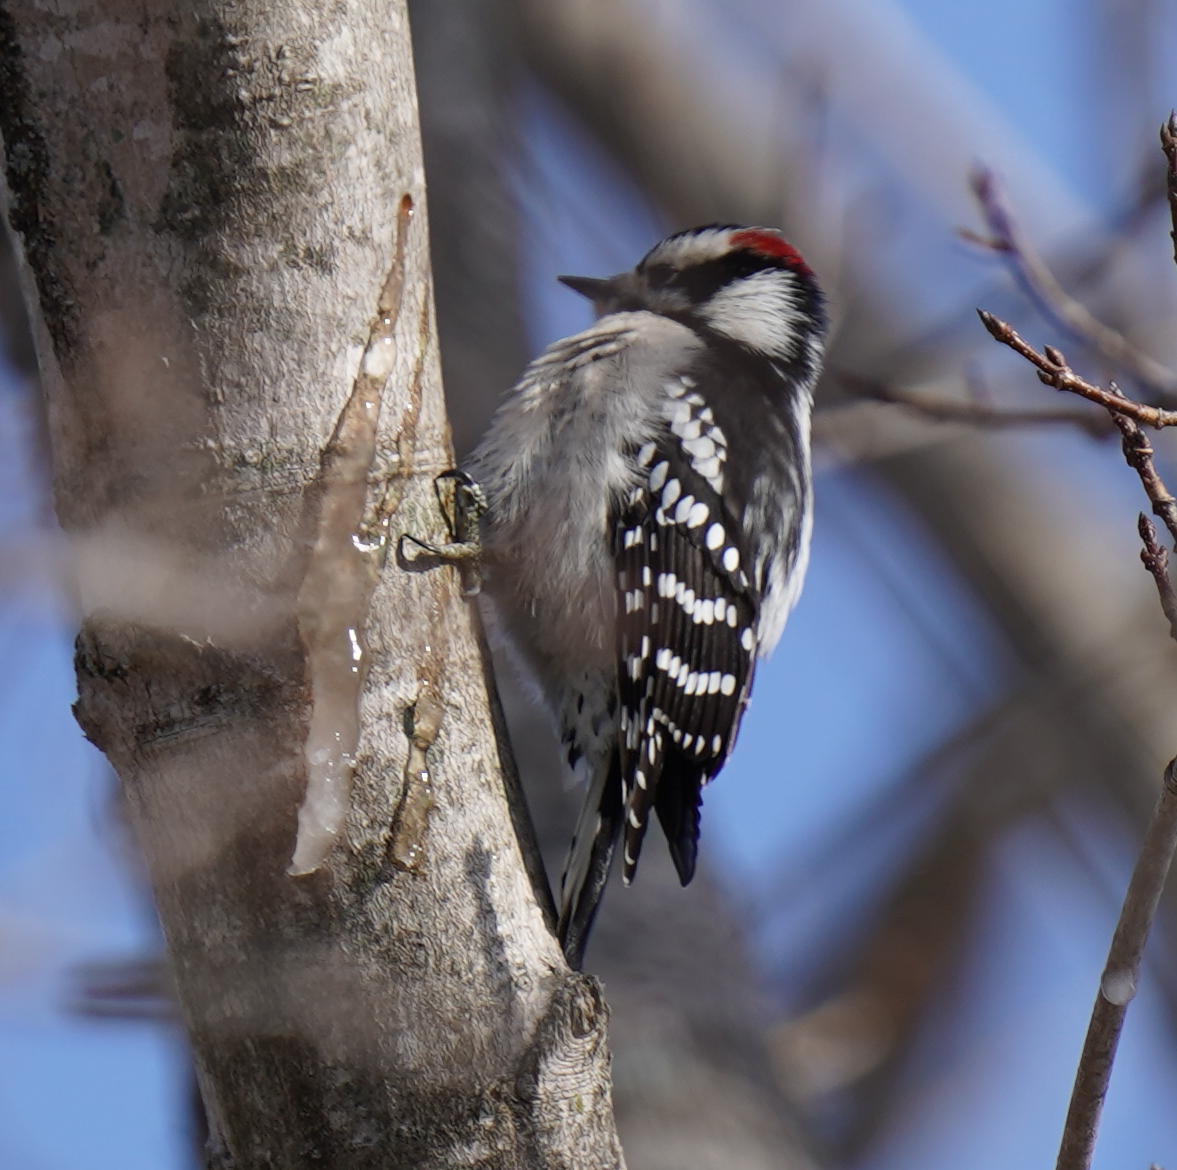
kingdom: Animalia
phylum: Chordata
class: Aves
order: Piciformes
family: Picidae
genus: Dryobates
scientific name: Dryobates pubescens
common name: Downy woodpecker
